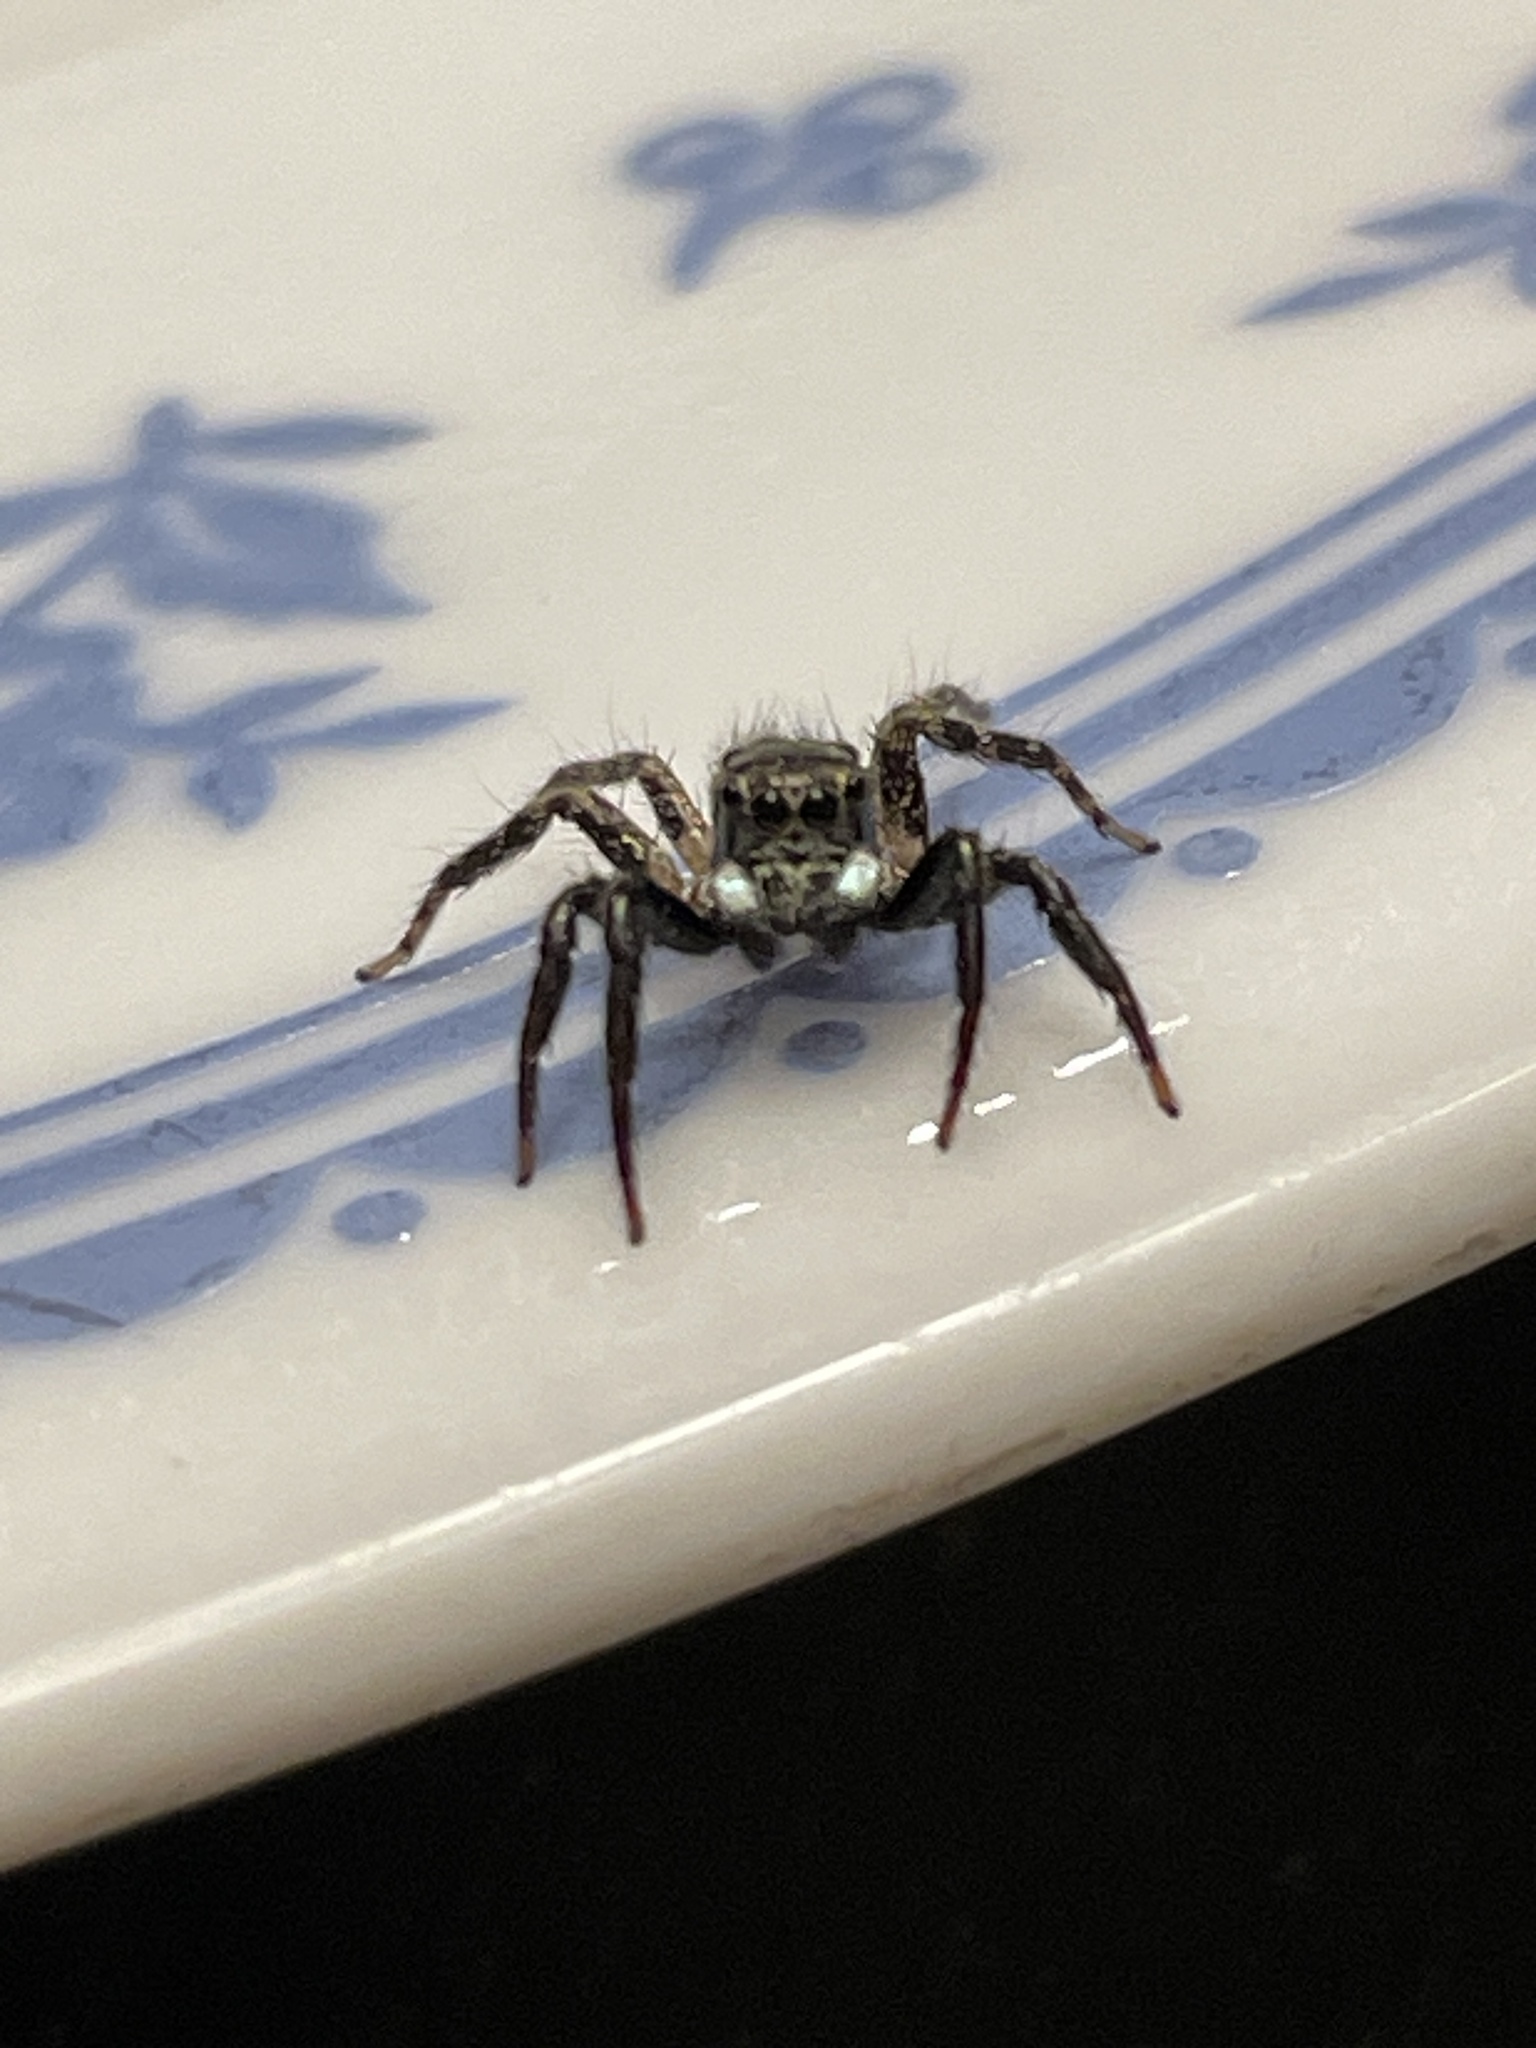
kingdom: Animalia
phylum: Arthropoda
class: Arachnida
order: Araneae
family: Salticidae
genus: Anasaitis
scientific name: Anasaitis canosa
